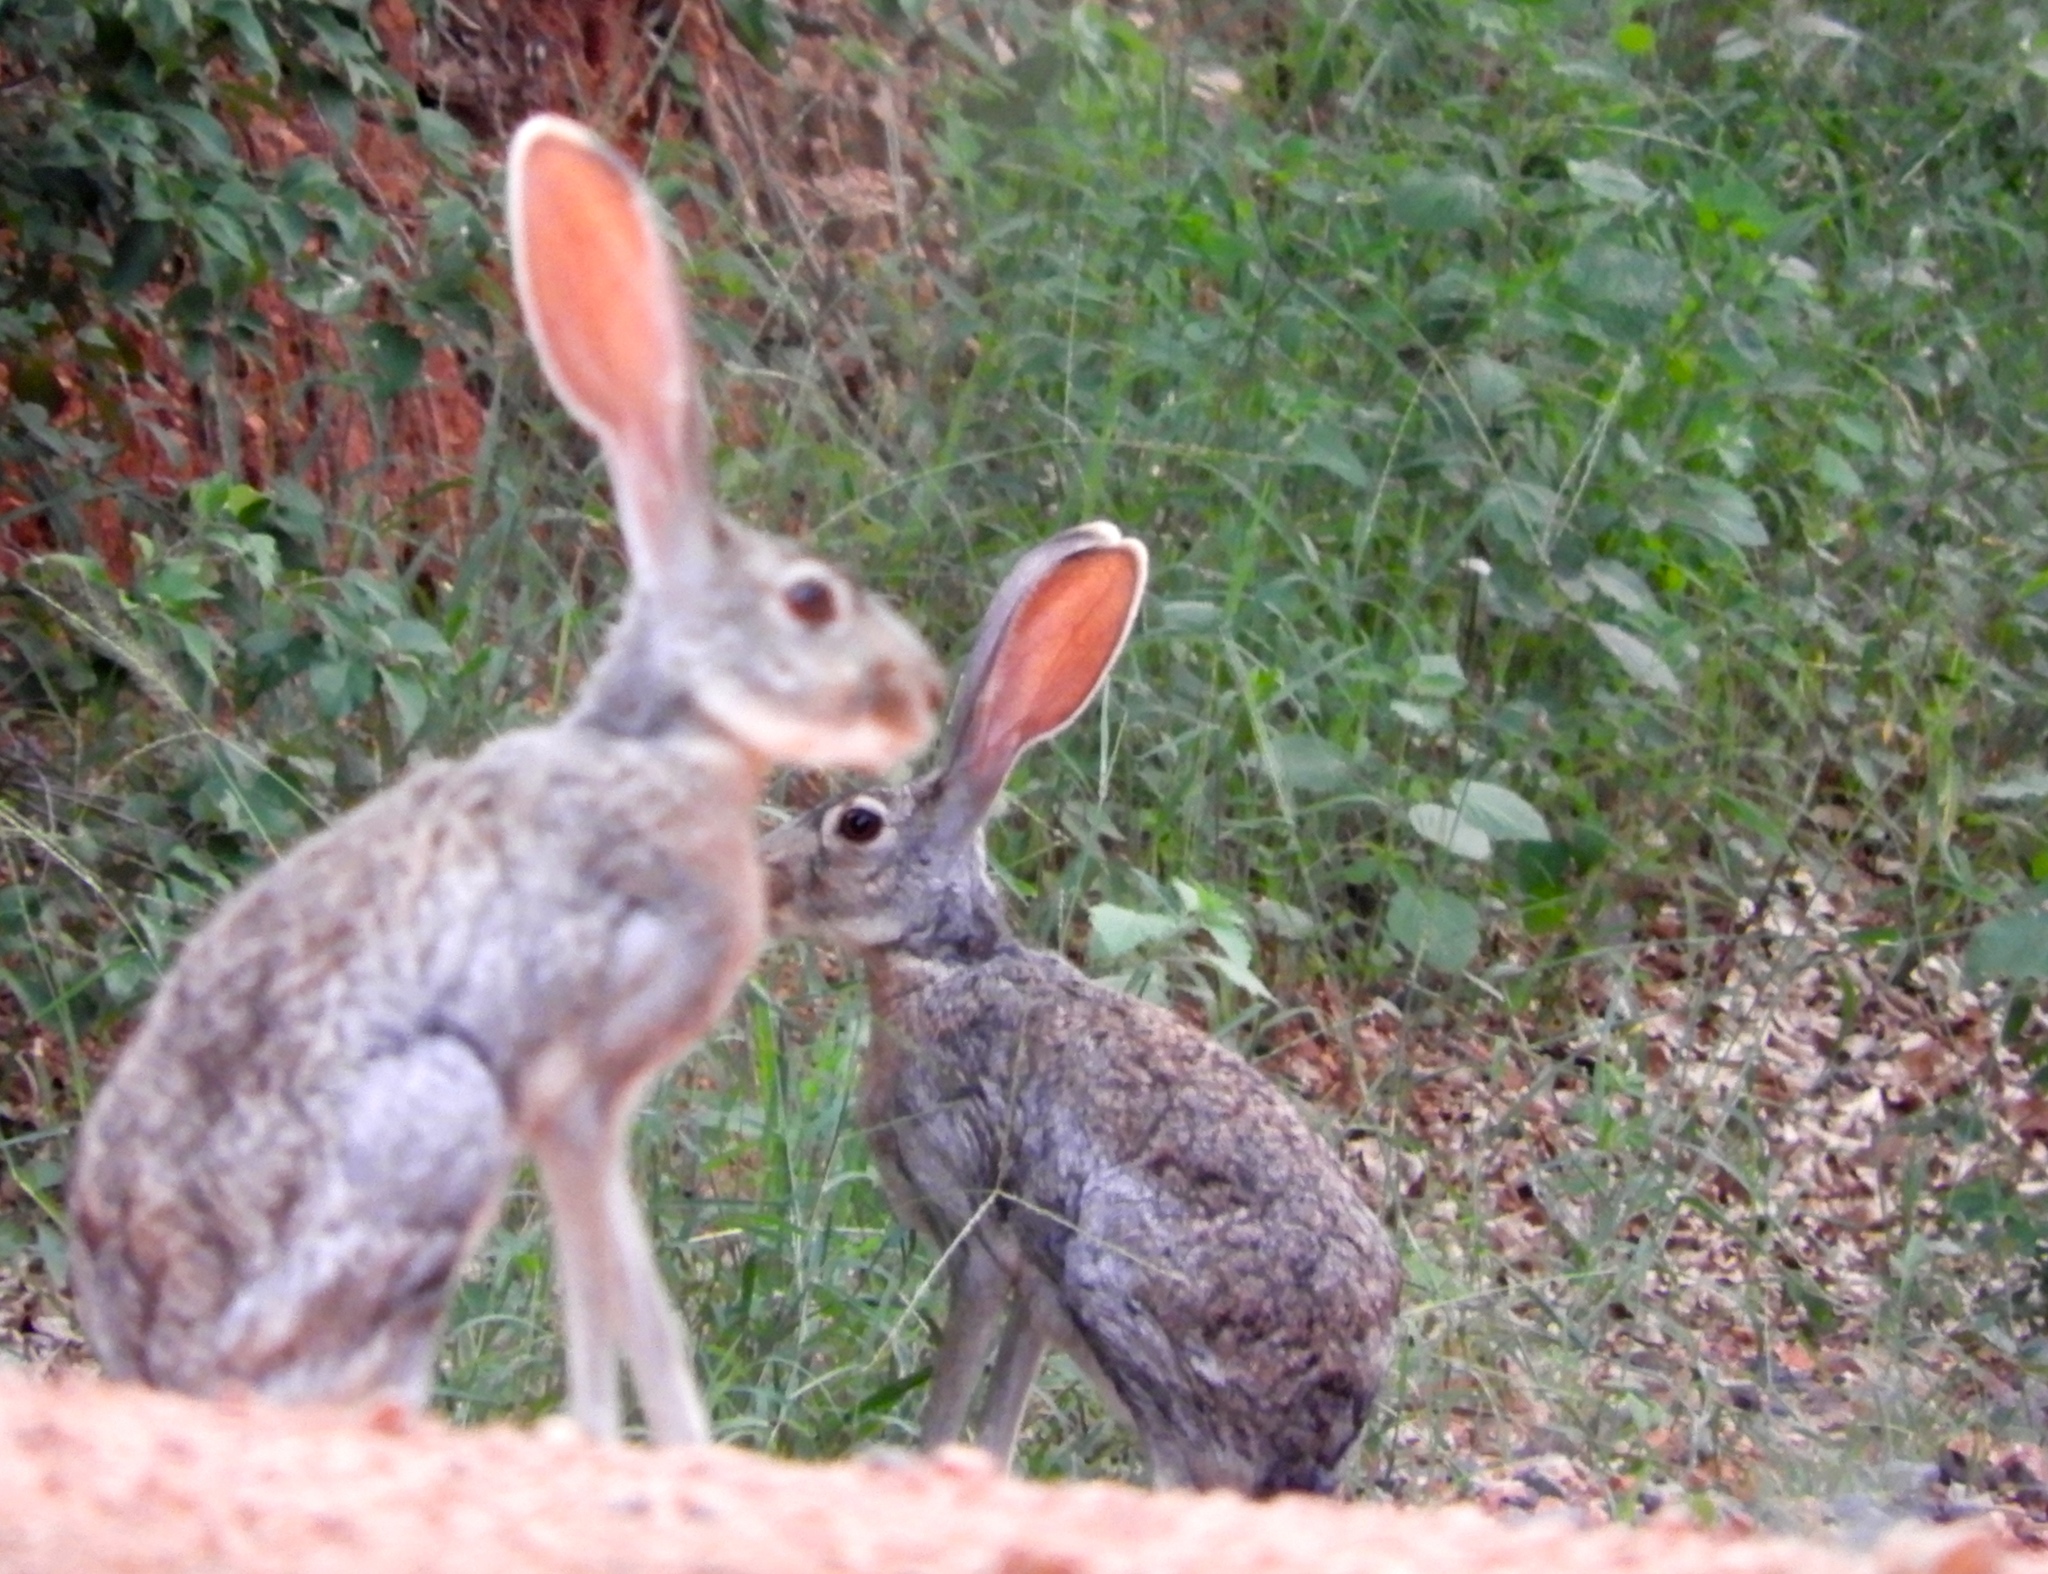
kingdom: Animalia
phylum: Chordata
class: Mammalia
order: Lagomorpha
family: Leporidae
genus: Lepus
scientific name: Lepus alleni
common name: Antelope jackrabbit
